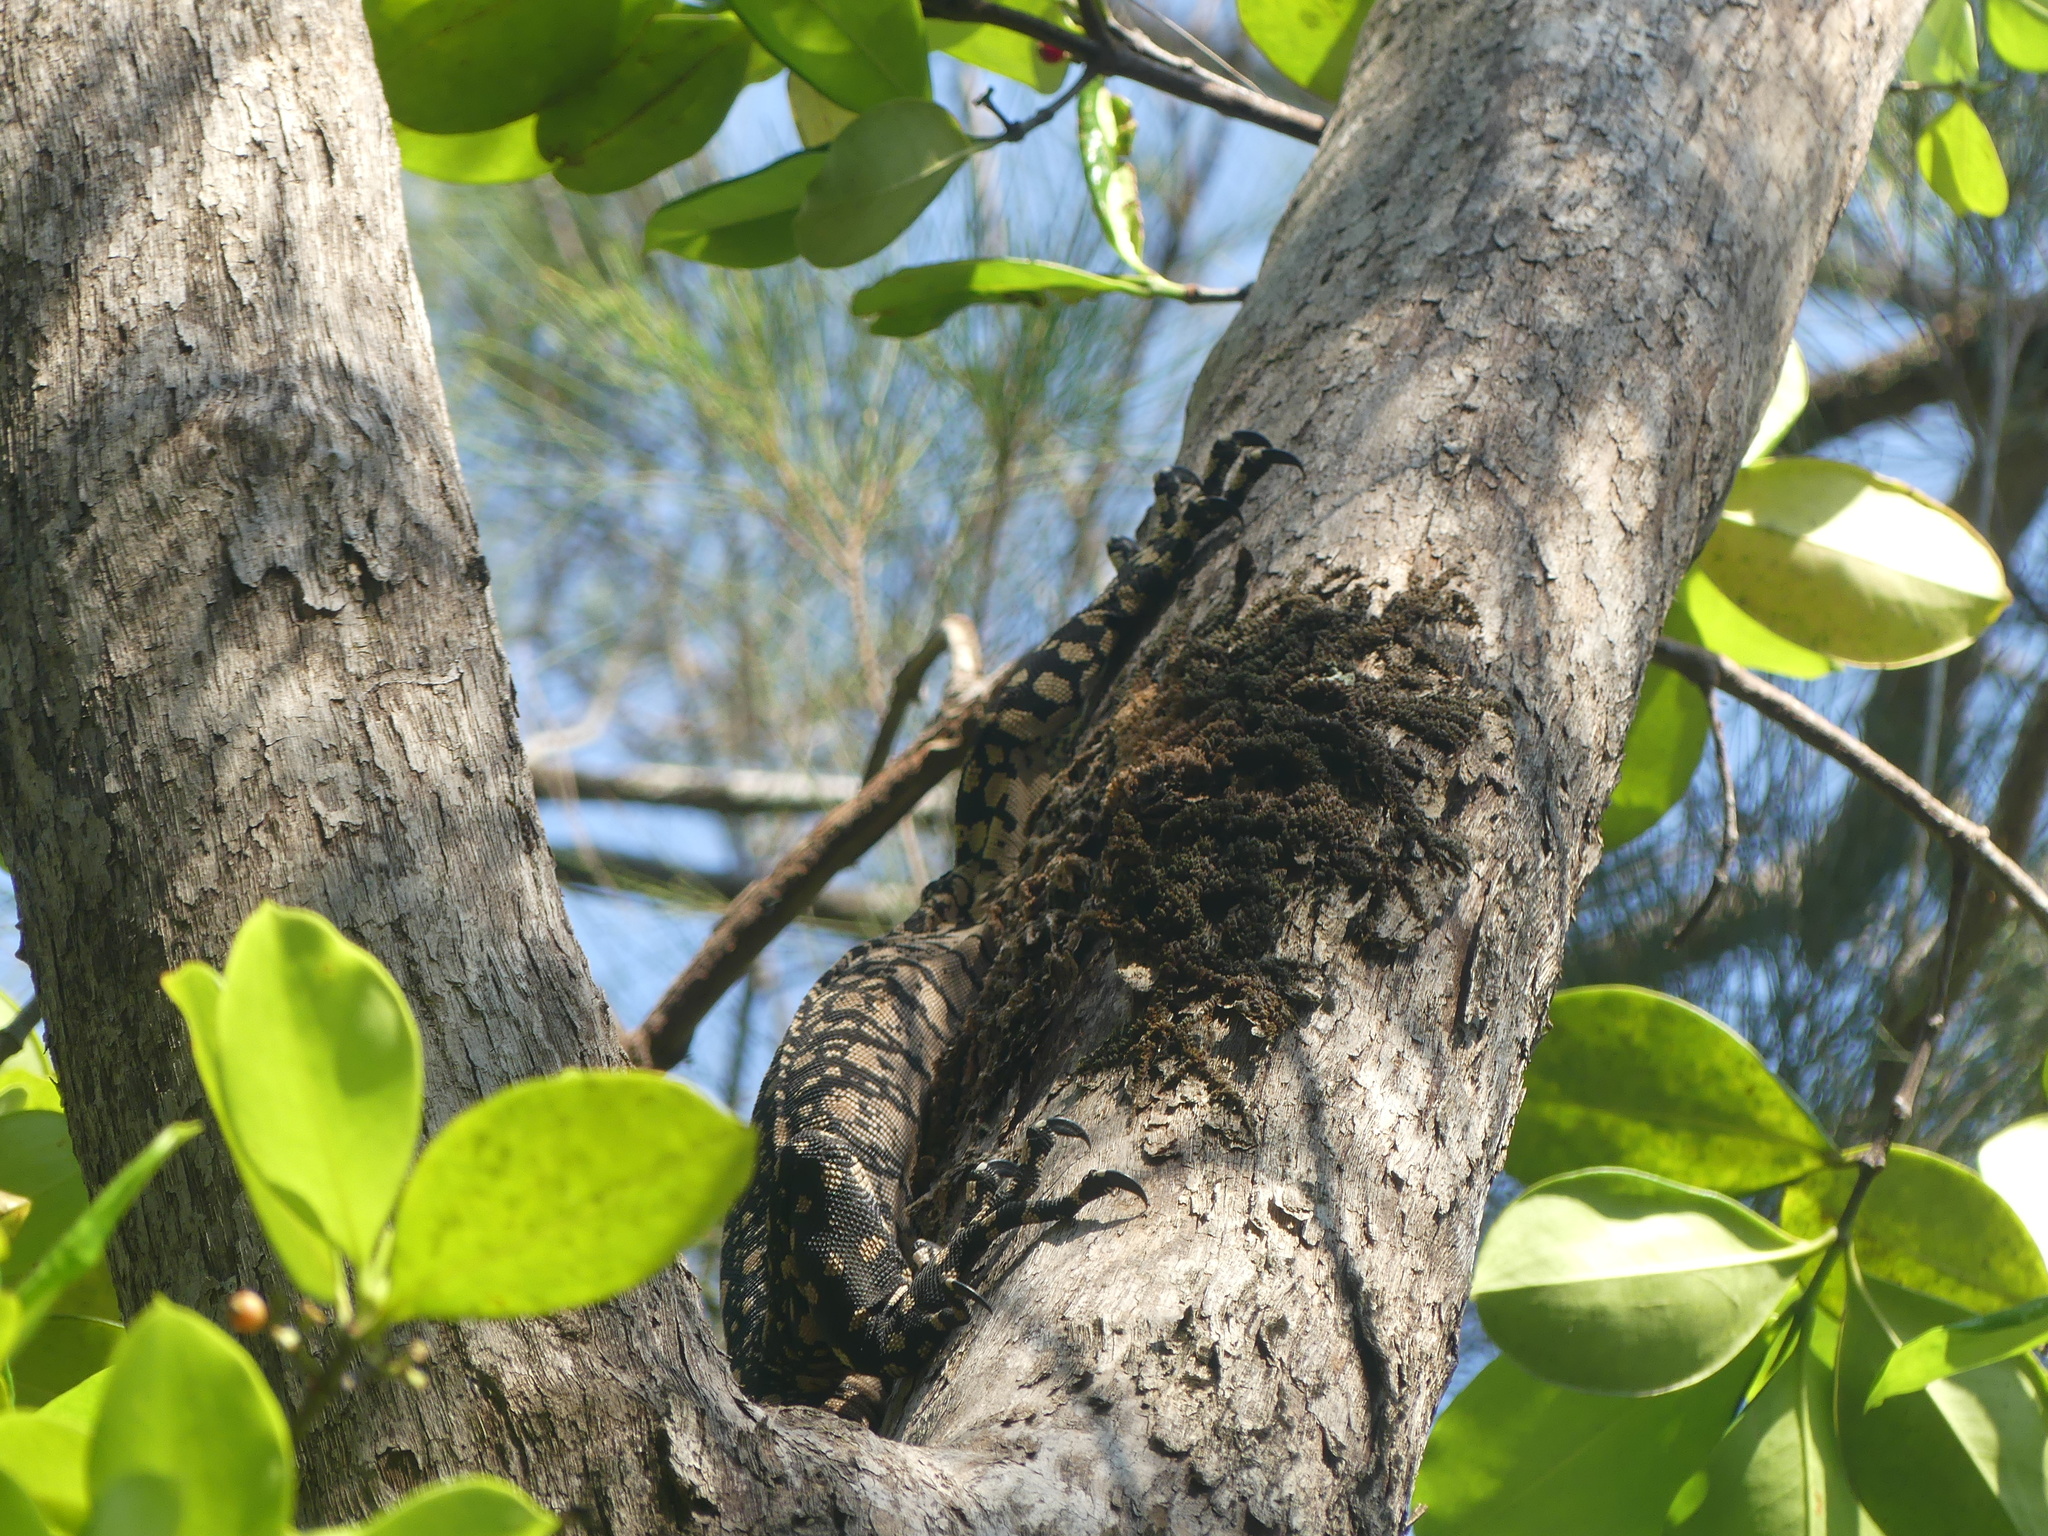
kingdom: Animalia
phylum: Chordata
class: Squamata
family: Varanidae
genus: Varanus
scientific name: Varanus varius
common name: Lace monitor
